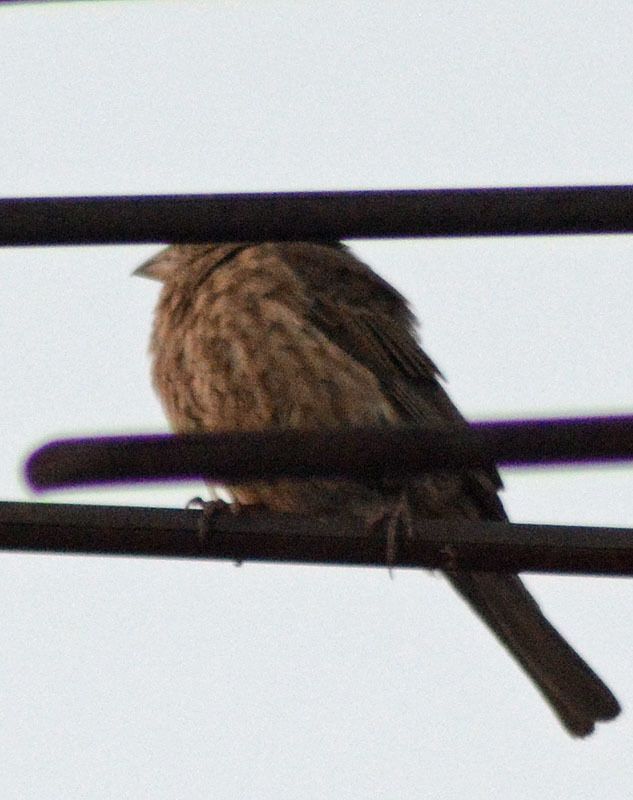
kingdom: Animalia
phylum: Chordata
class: Aves
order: Passeriformes
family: Fringillidae
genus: Haemorhous
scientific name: Haemorhous mexicanus
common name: House finch
